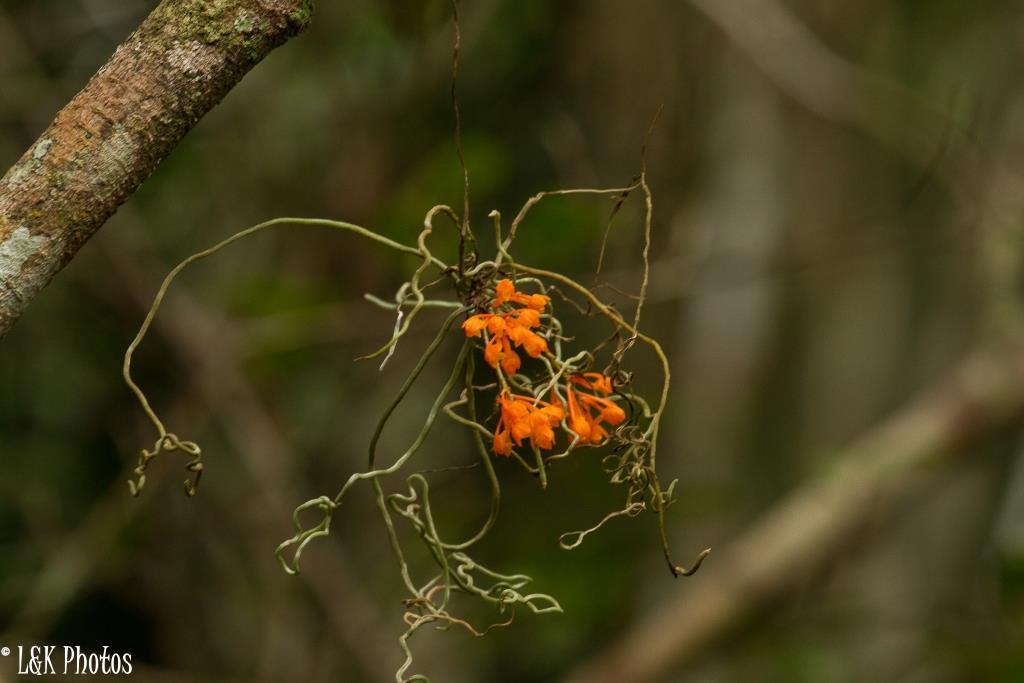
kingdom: Plantae
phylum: Tracheophyta
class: Liliopsida
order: Asparagales
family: Orchidaceae
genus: Microcoelia
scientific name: Microcoelia gilpiniae
